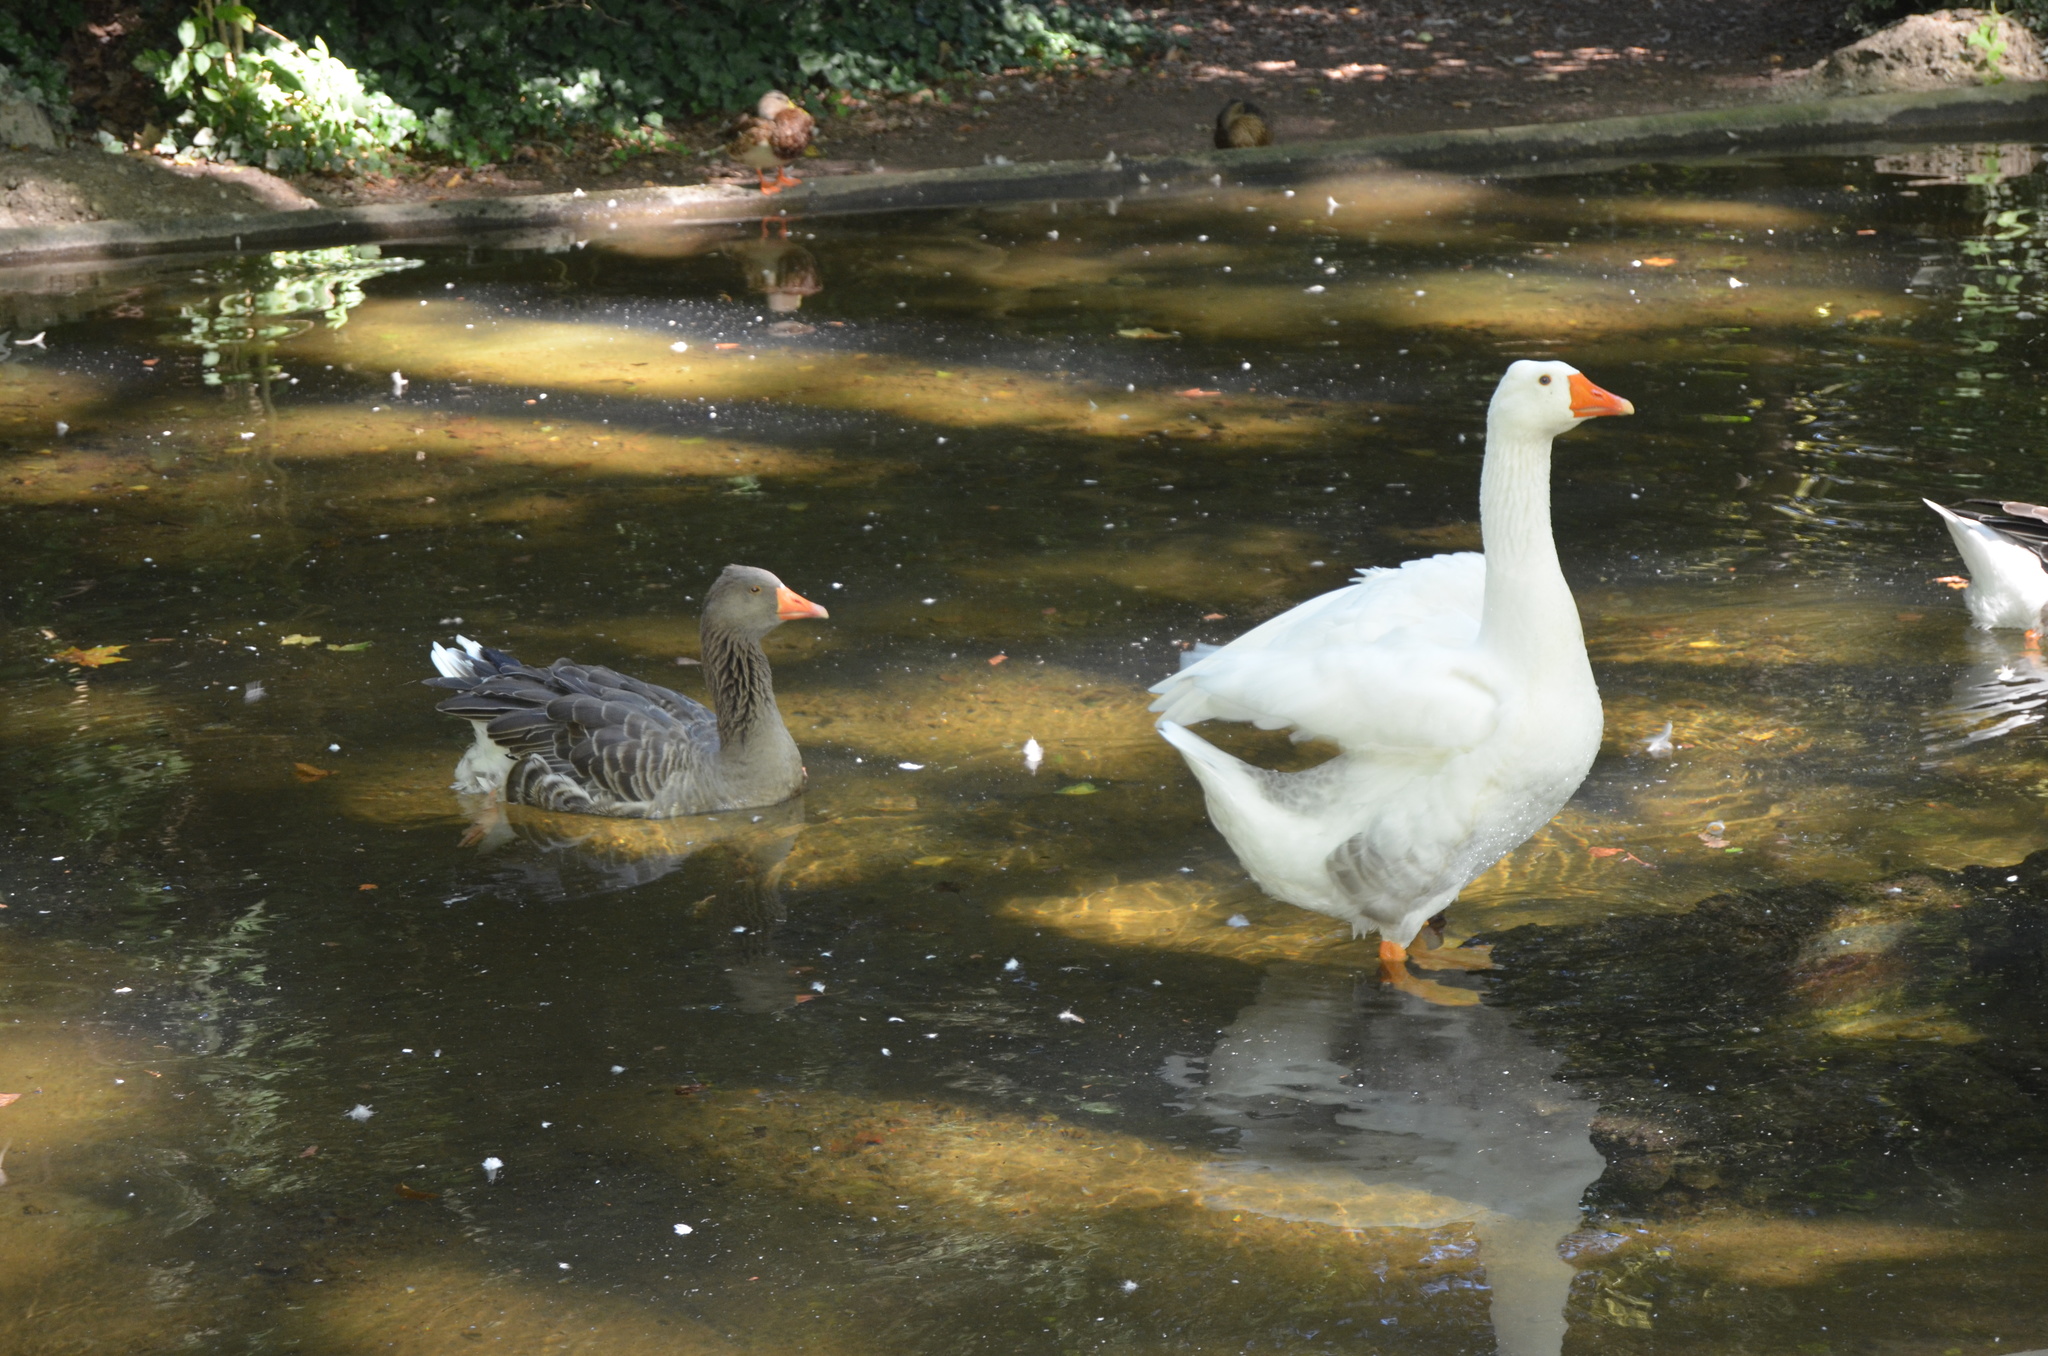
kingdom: Animalia
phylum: Chordata
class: Aves
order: Anseriformes
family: Anatidae
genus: Anser
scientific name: Anser anser
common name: Greylag goose
